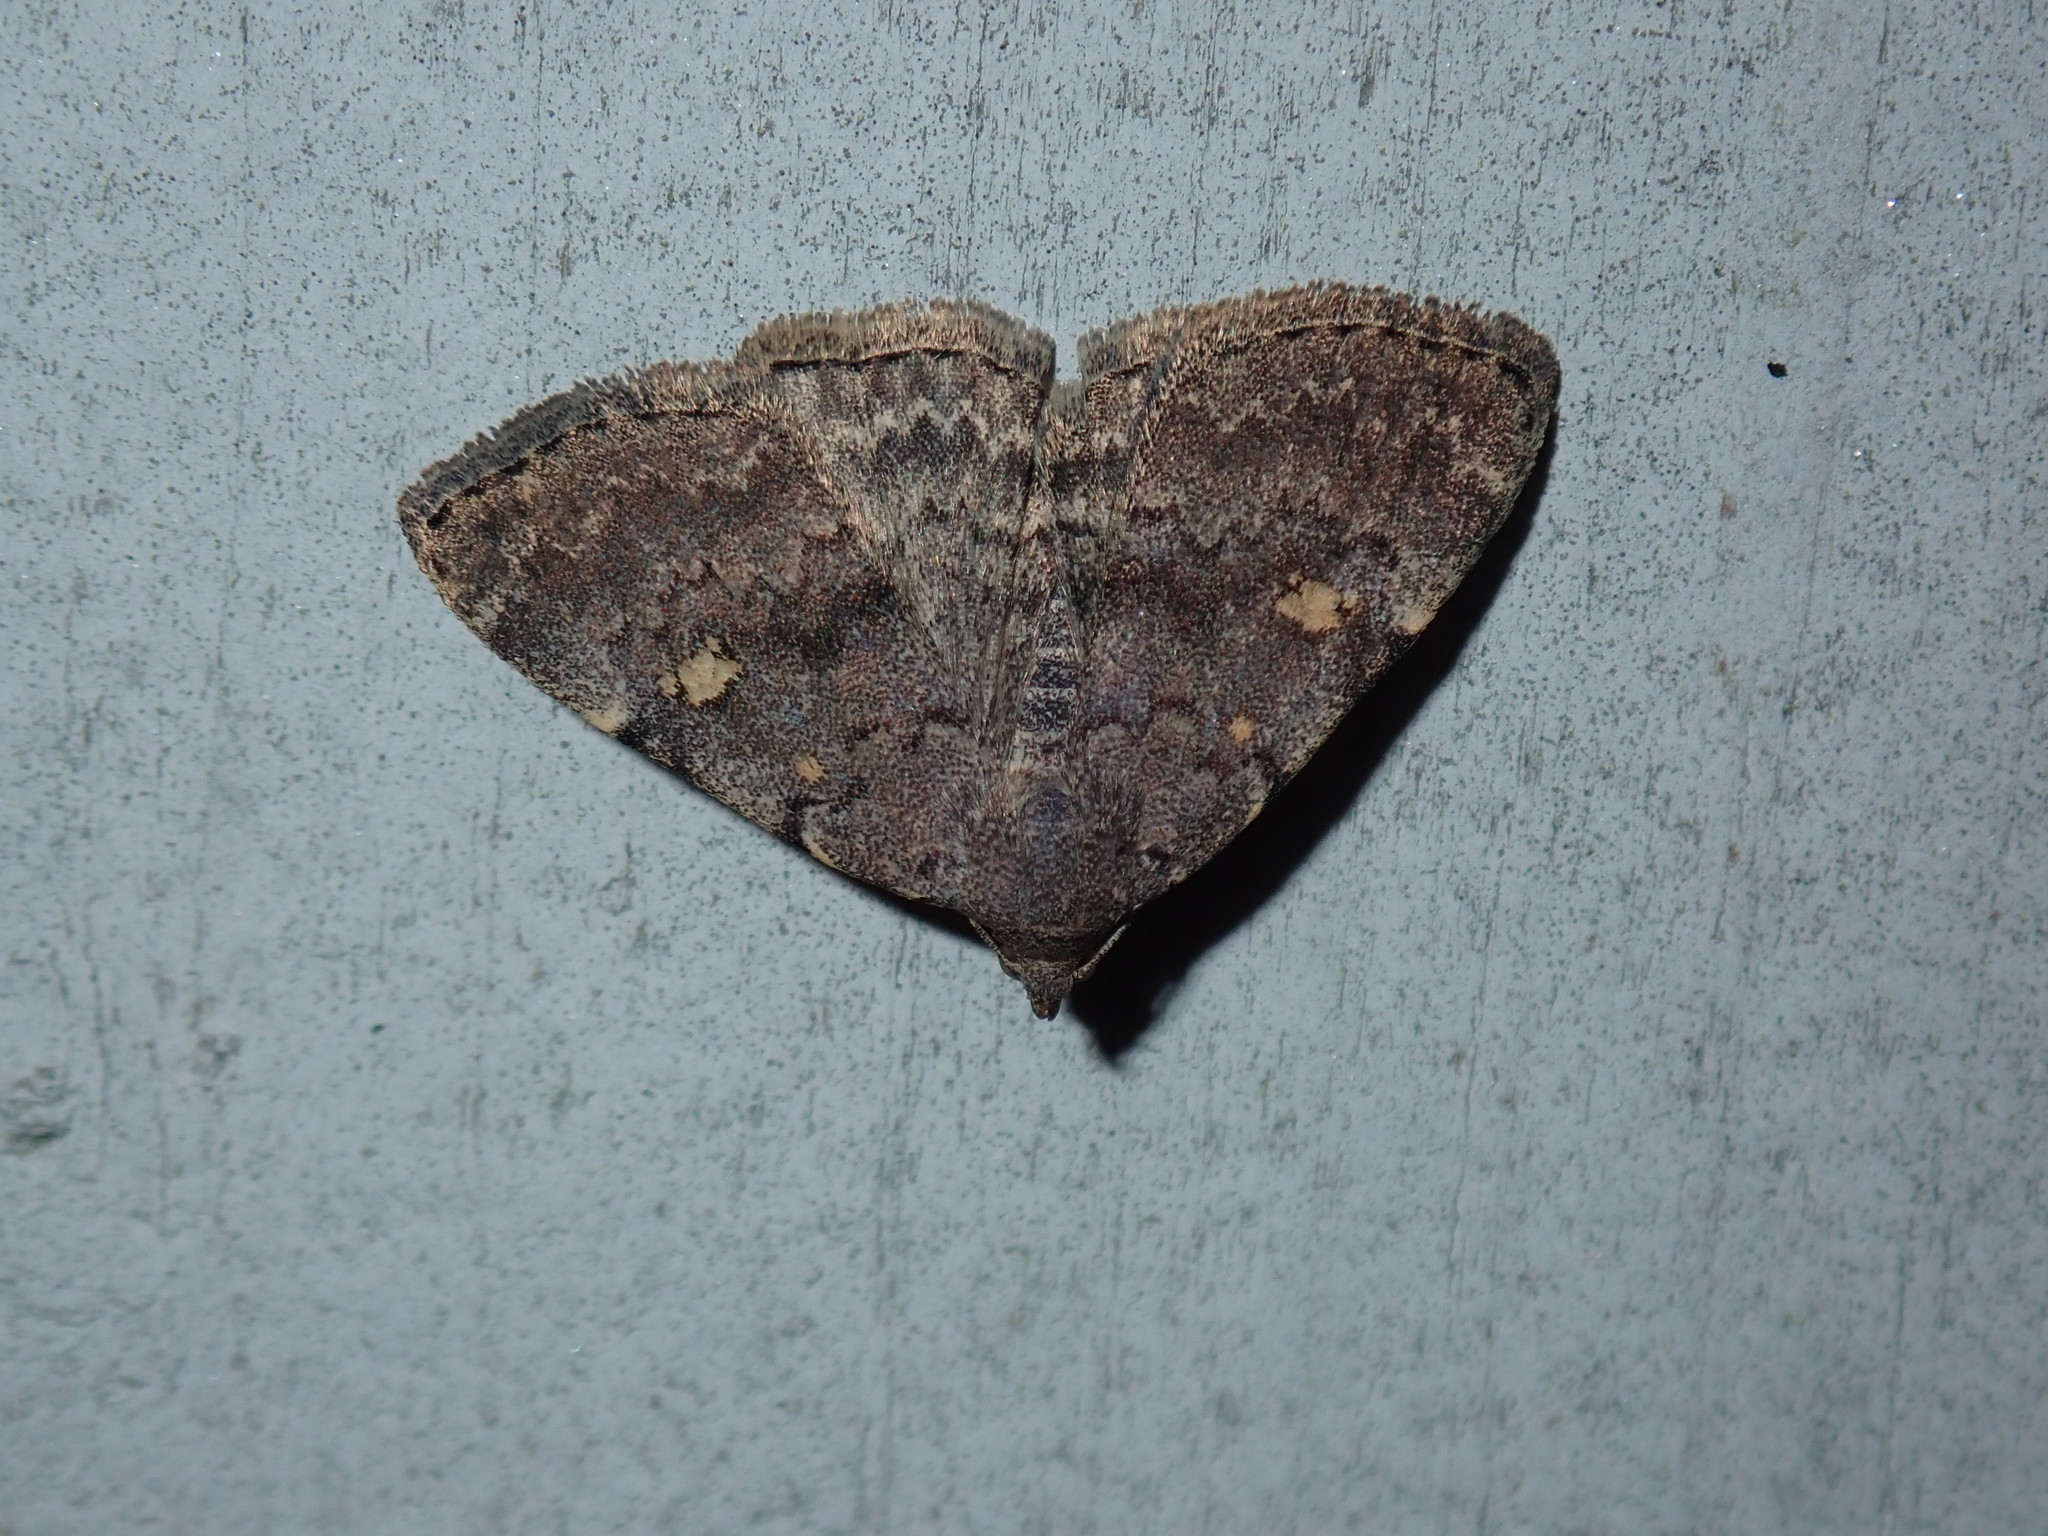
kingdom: Animalia
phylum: Arthropoda
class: Insecta
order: Lepidoptera
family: Erebidae
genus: Idia
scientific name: Idia aemula
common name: Common idia moth
